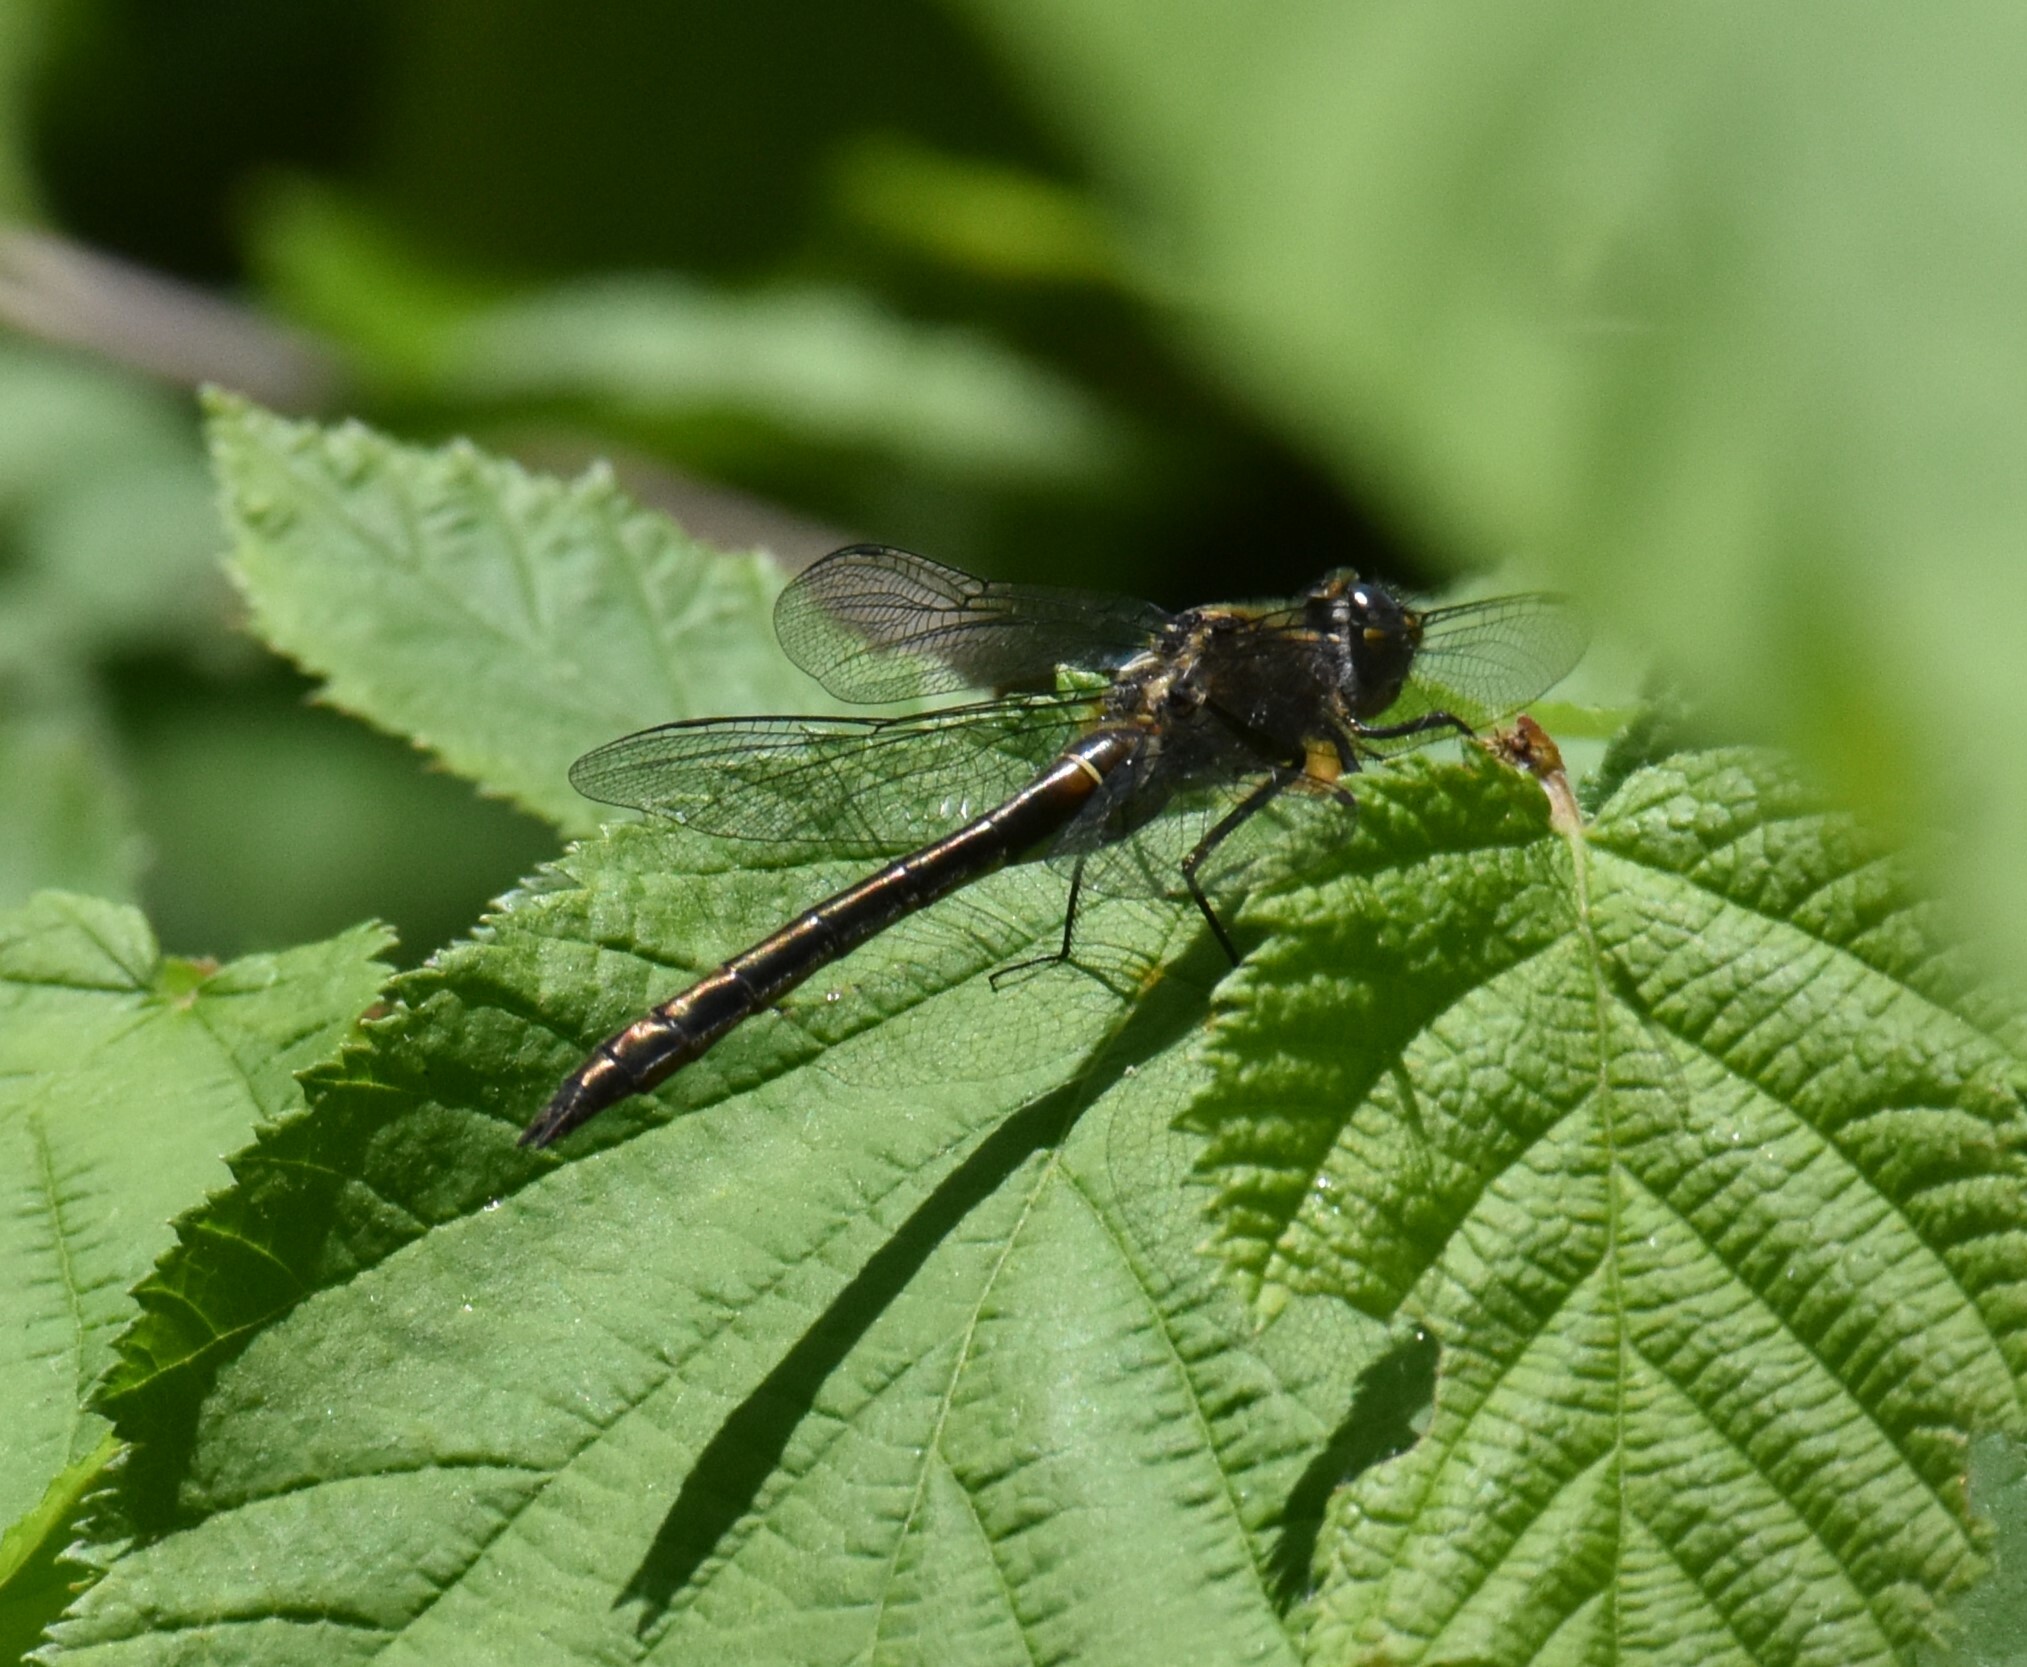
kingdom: Animalia
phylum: Arthropoda
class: Insecta
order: Odonata
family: Corduliidae
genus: Cordulia
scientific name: Cordulia shurtleffii
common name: American emerald
